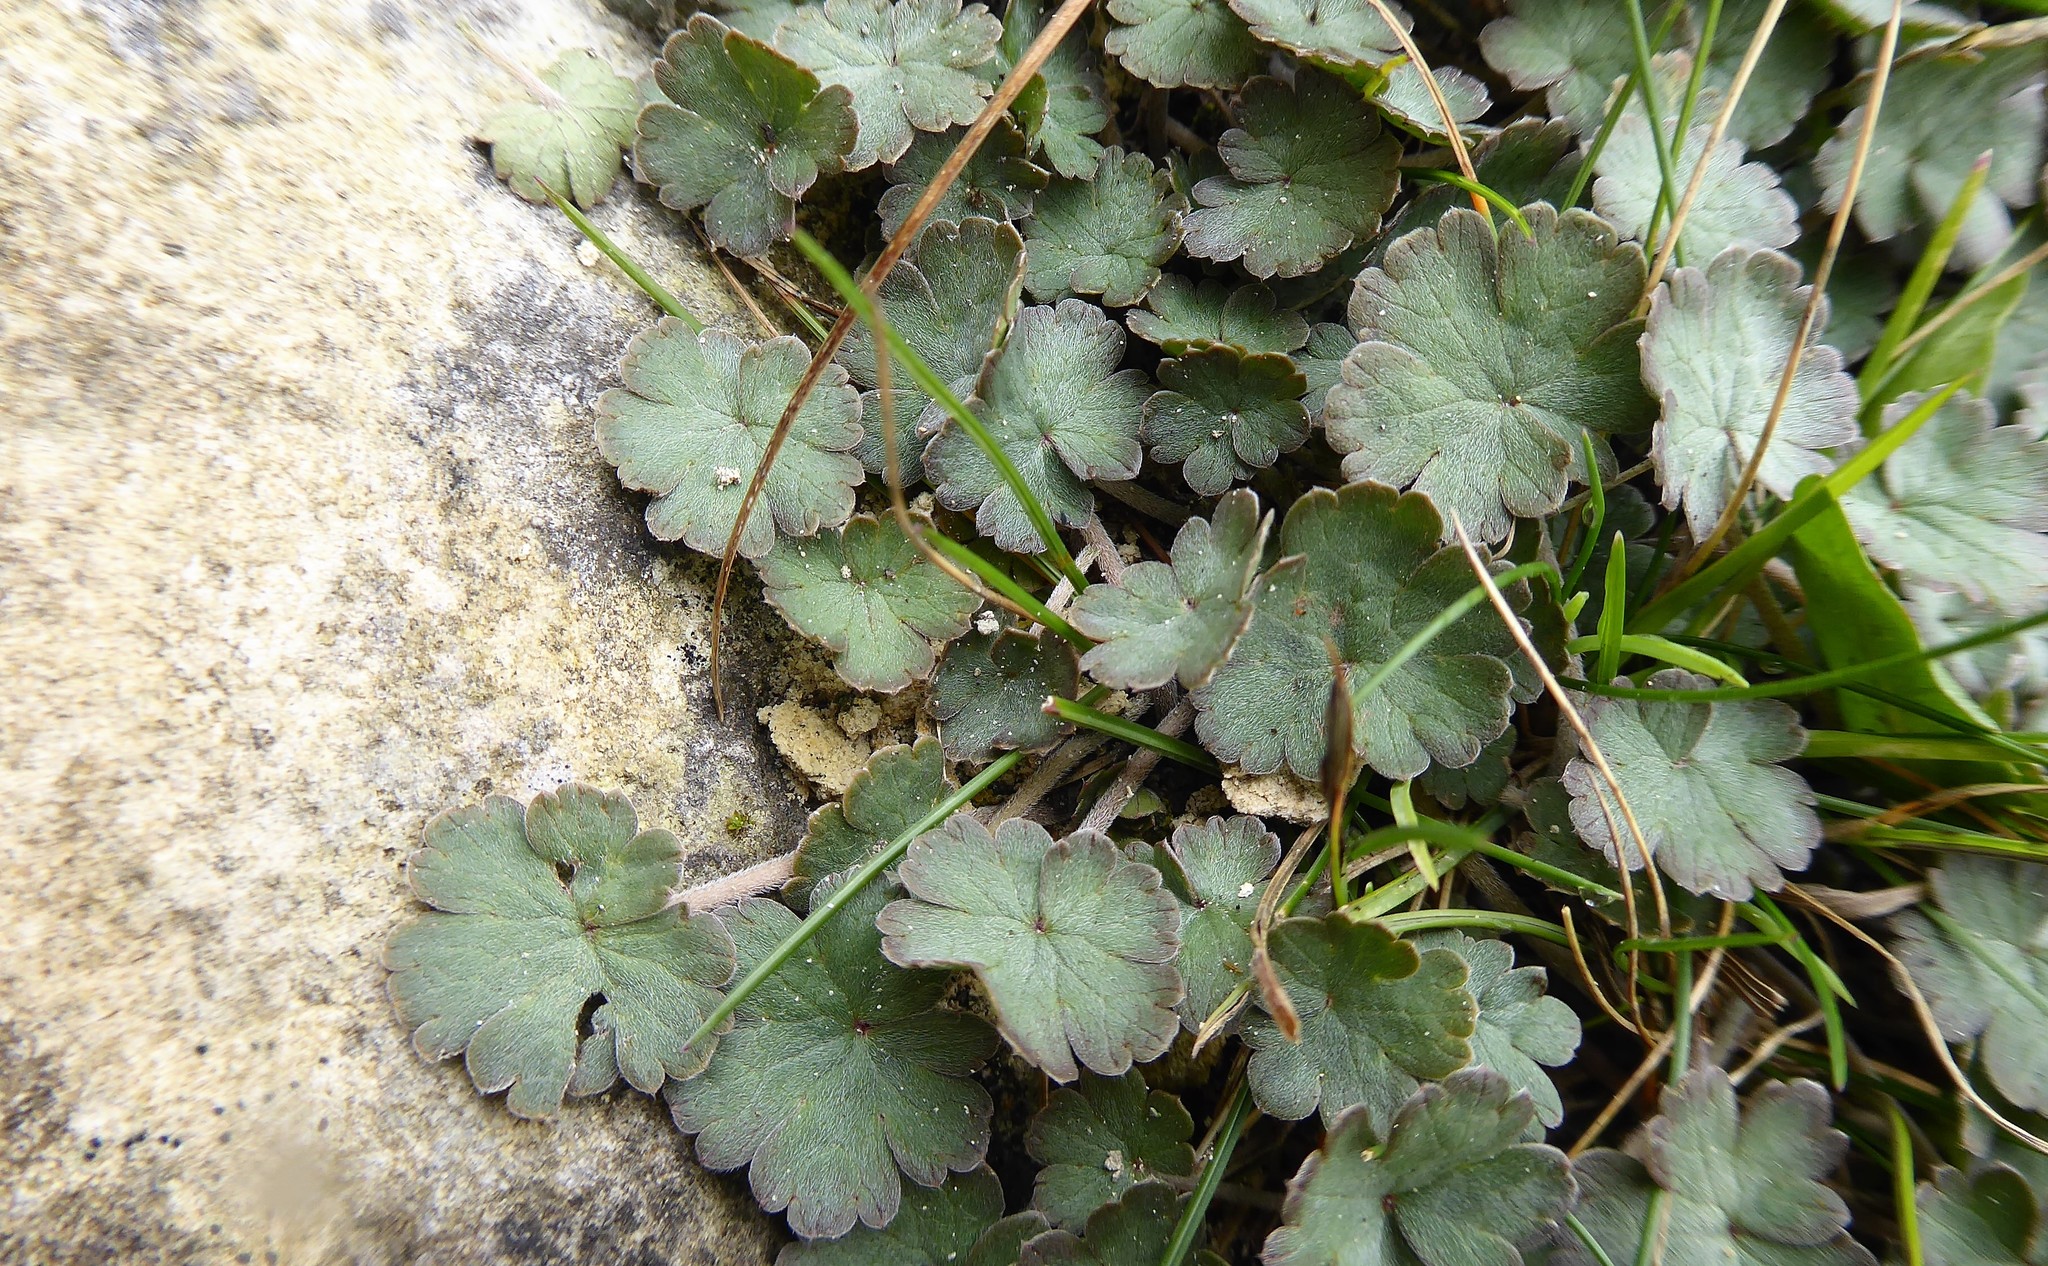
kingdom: Plantae
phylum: Tracheophyta
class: Magnoliopsida
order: Geraniales
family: Geraniaceae
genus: Geranium
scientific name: Geranium socolateum
